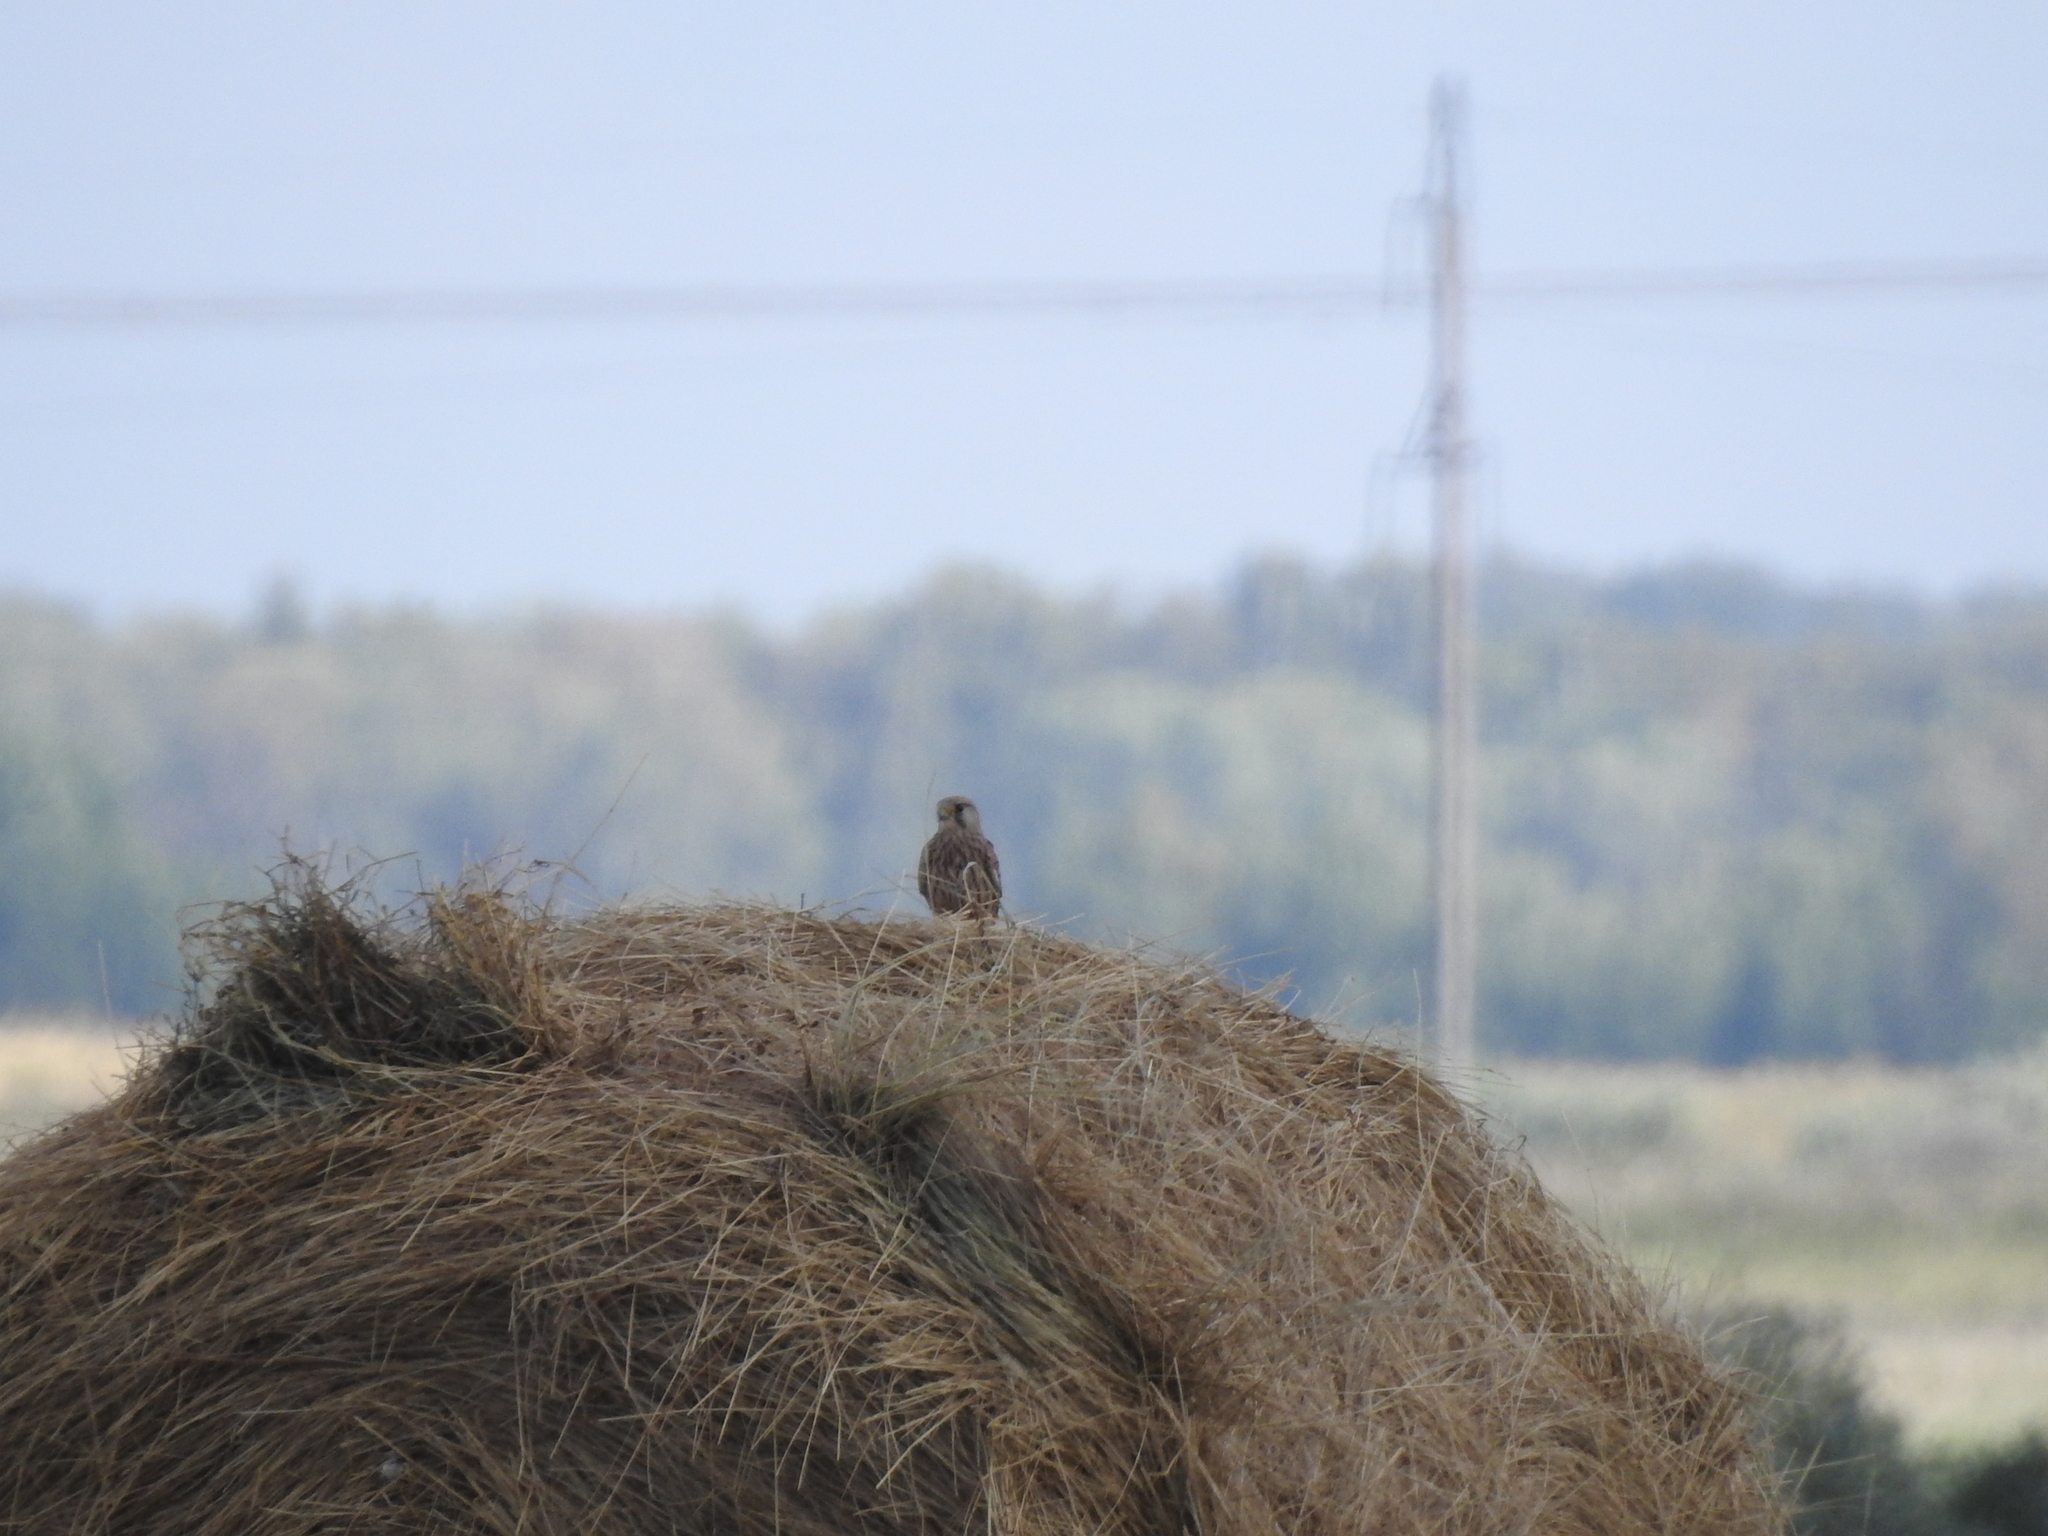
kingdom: Animalia
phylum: Chordata
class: Aves
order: Falconiformes
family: Falconidae
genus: Falco
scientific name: Falco tinnunculus
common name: Common kestrel
